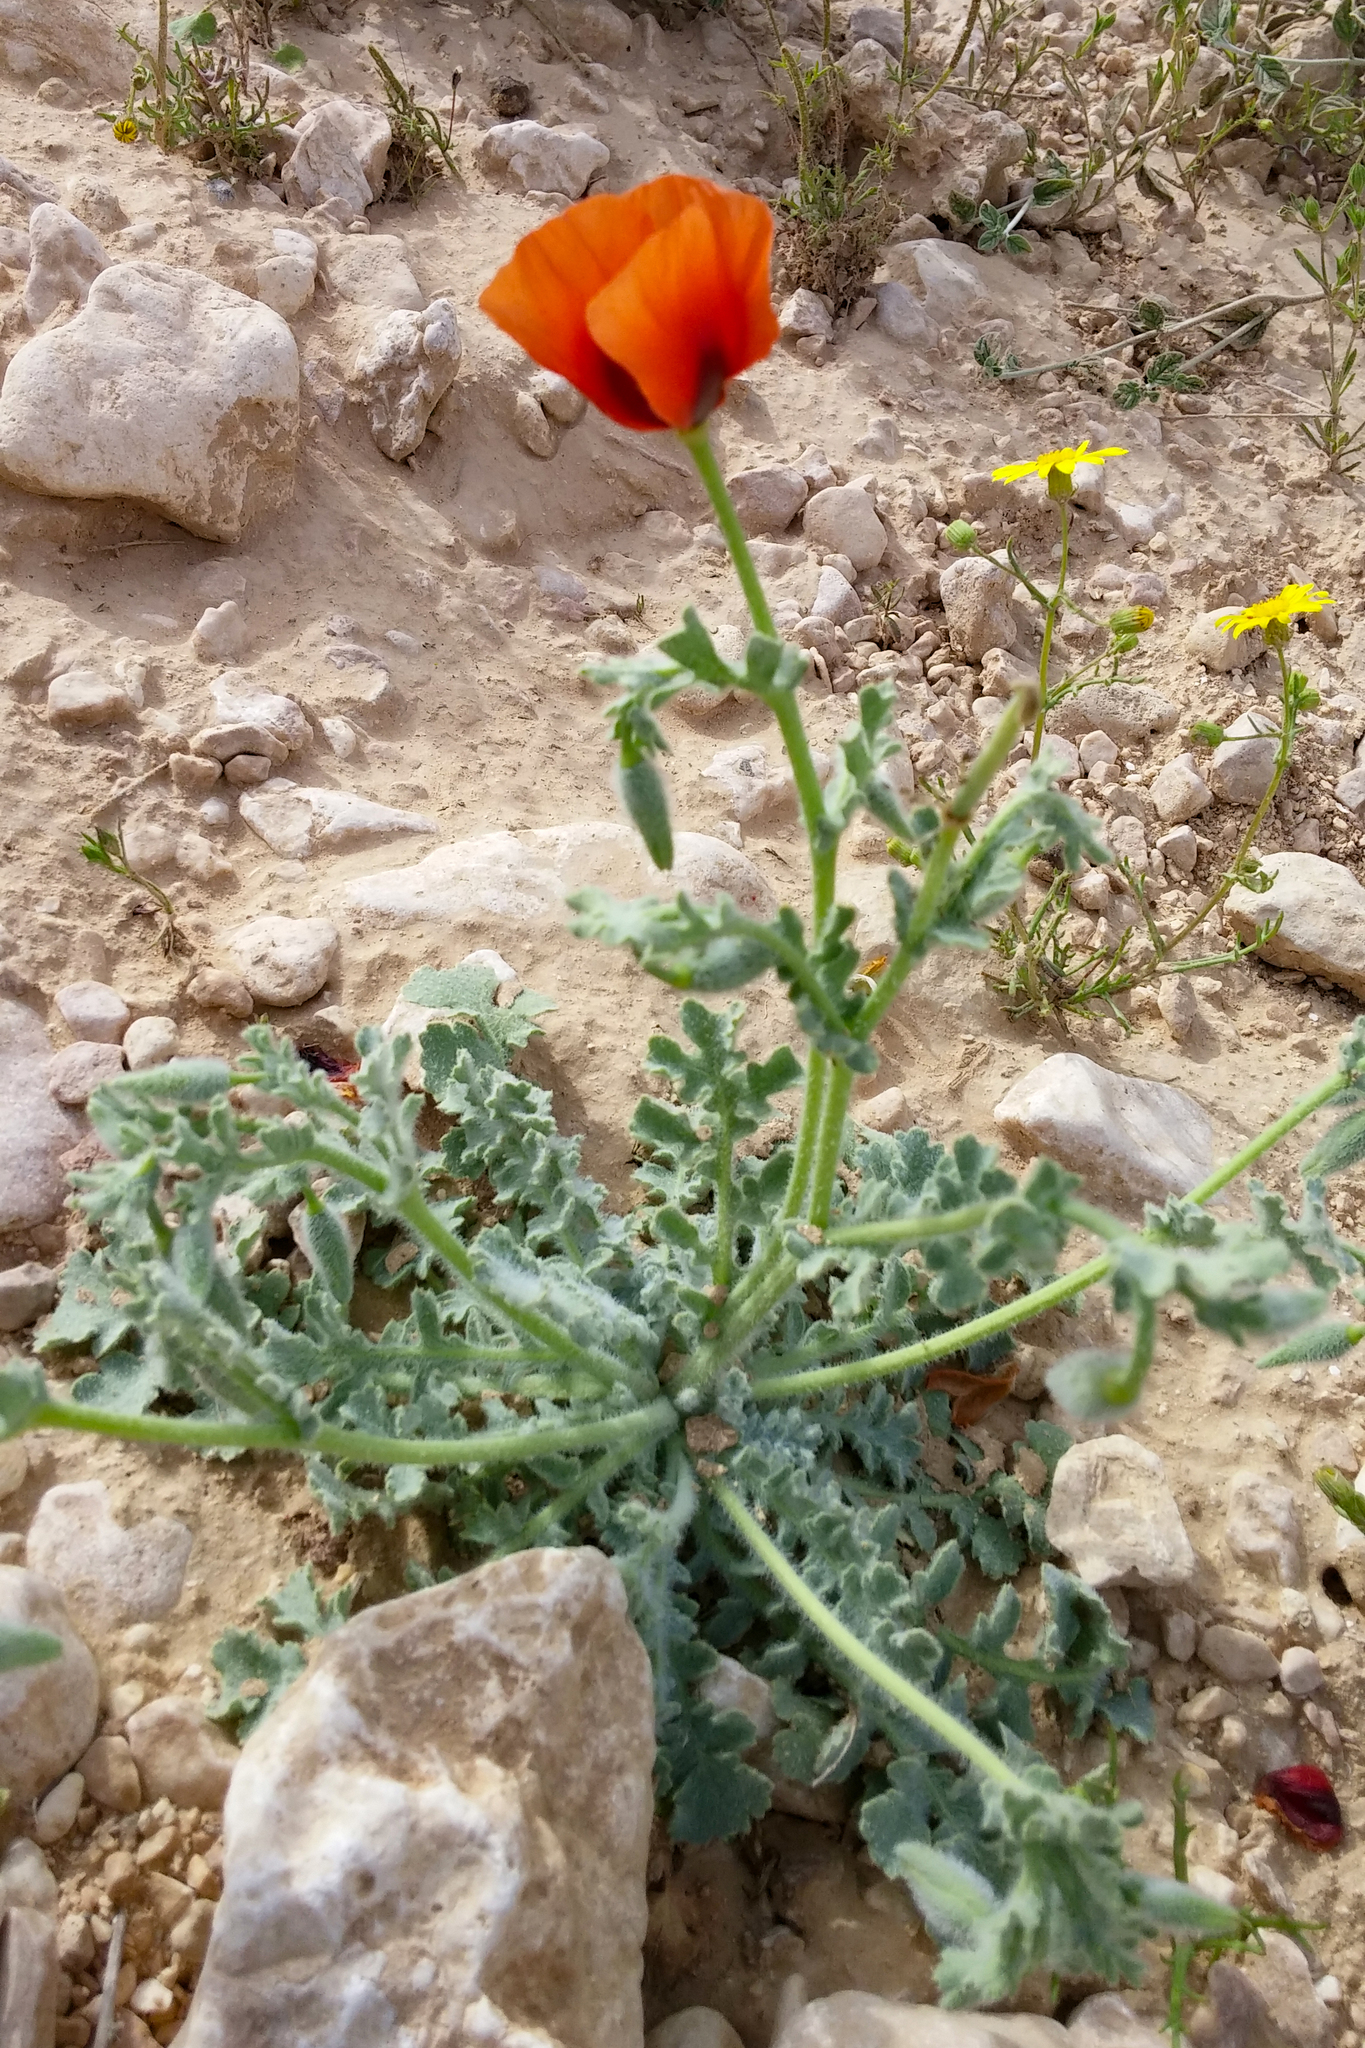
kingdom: Plantae
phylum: Tracheophyta
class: Magnoliopsida
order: Ranunculales
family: Papaveraceae
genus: Glaucium
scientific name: Glaucium arabicum
